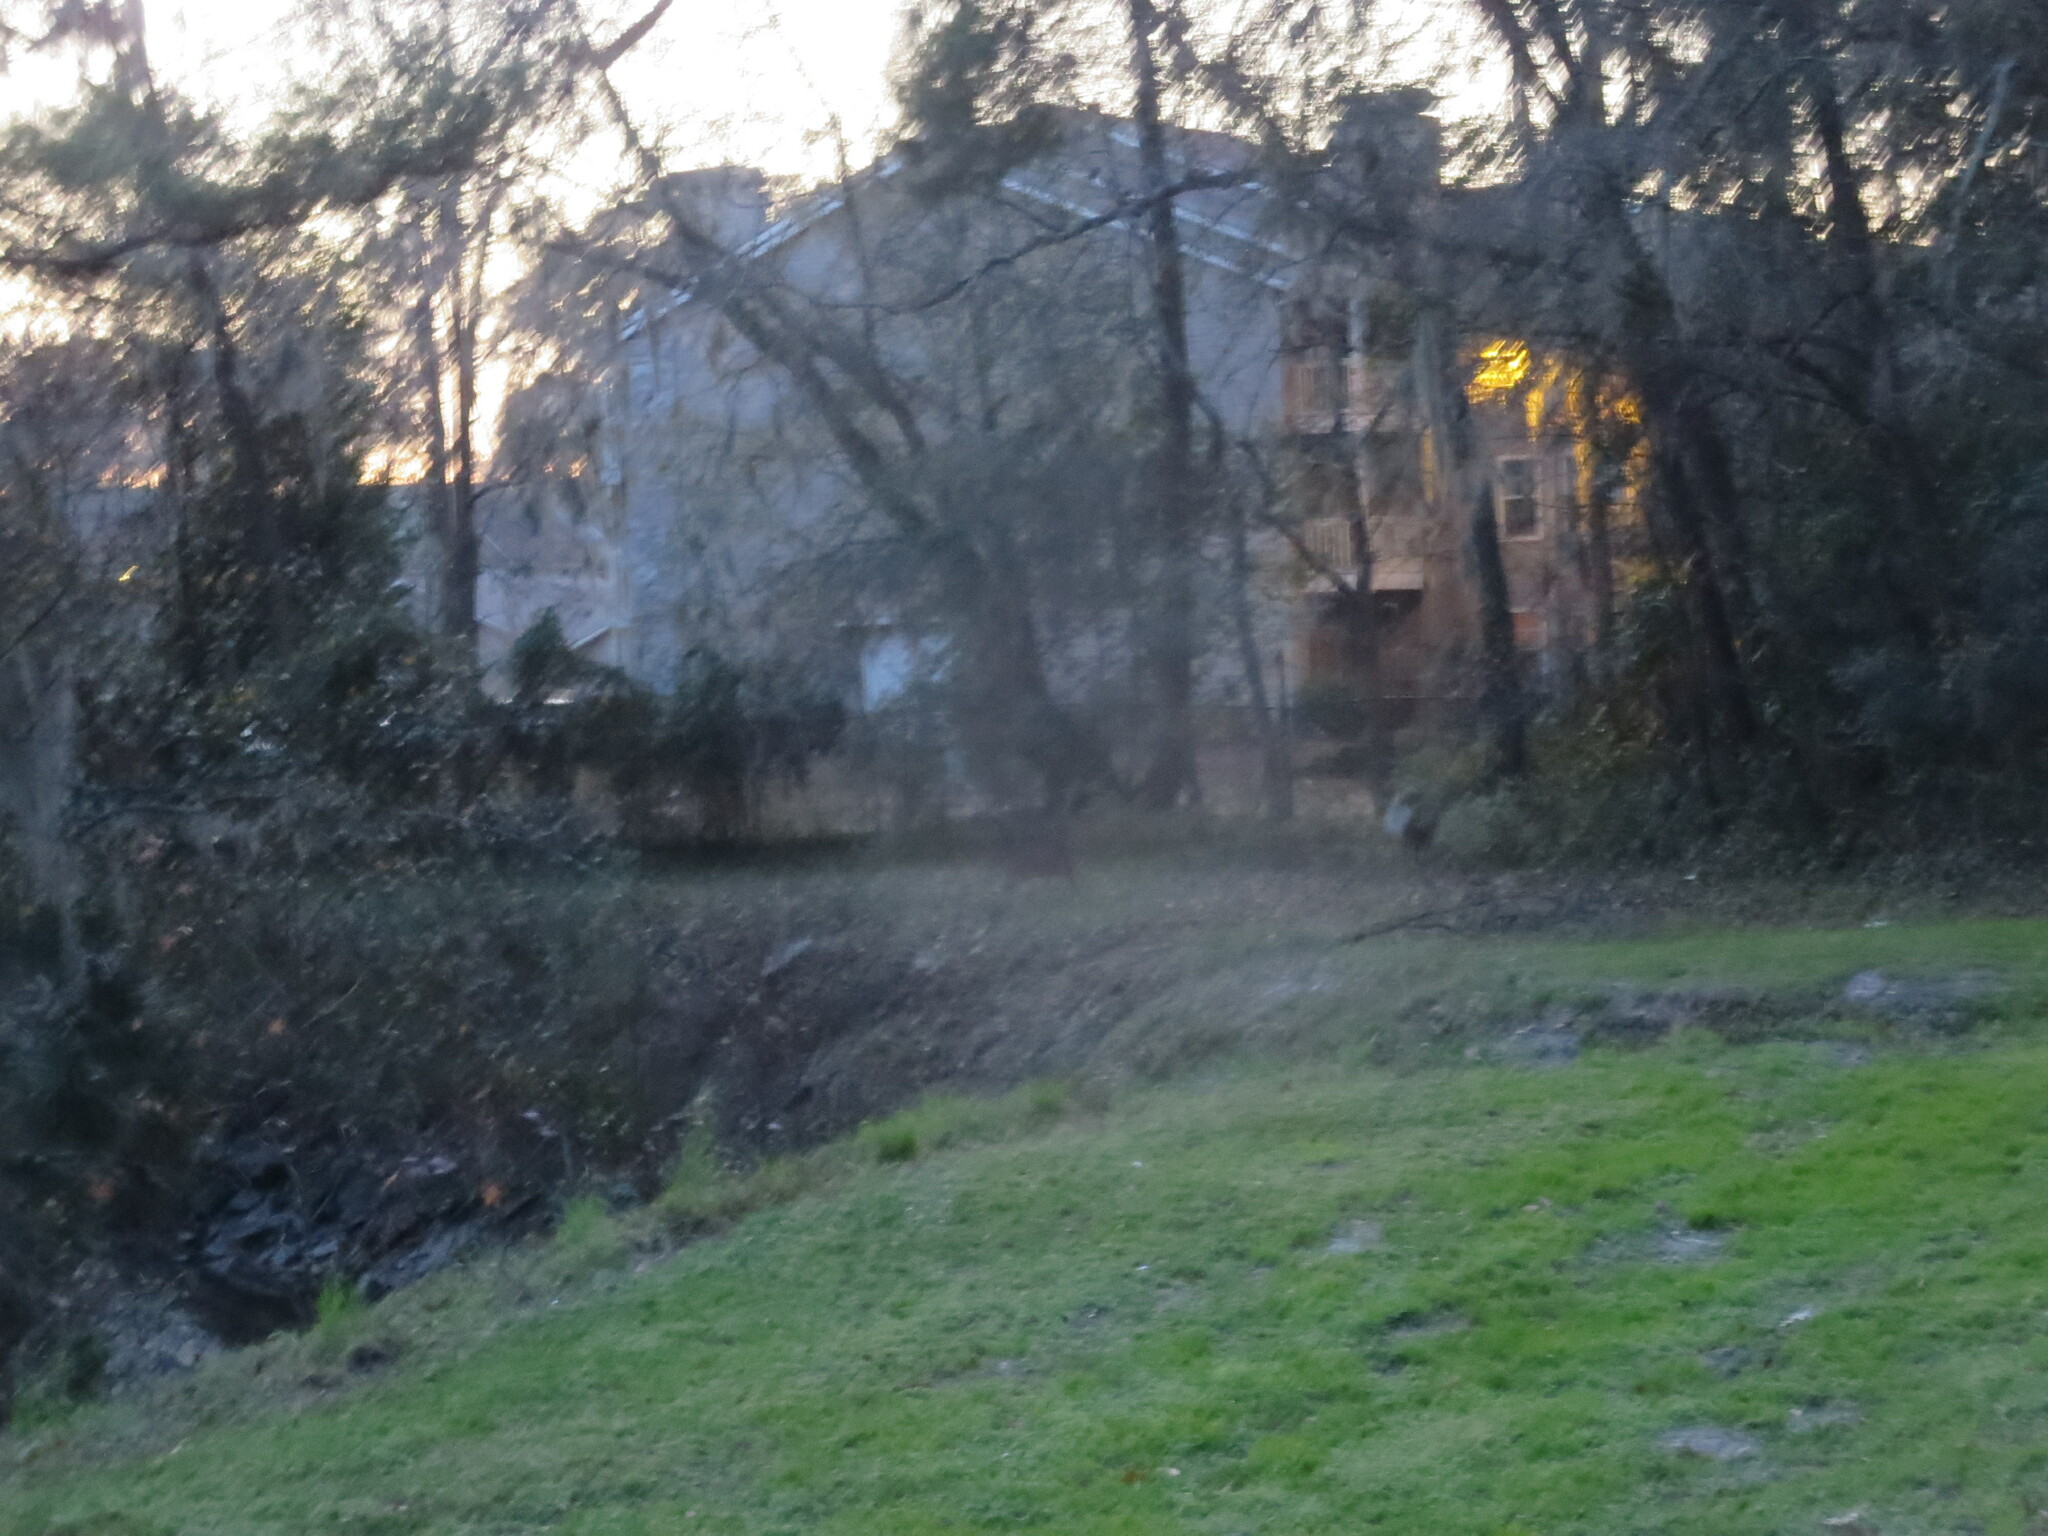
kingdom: Animalia
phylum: Chordata
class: Mammalia
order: Artiodactyla
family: Cervidae
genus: Odocoileus
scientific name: Odocoileus virginianus
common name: White-tailed deer
